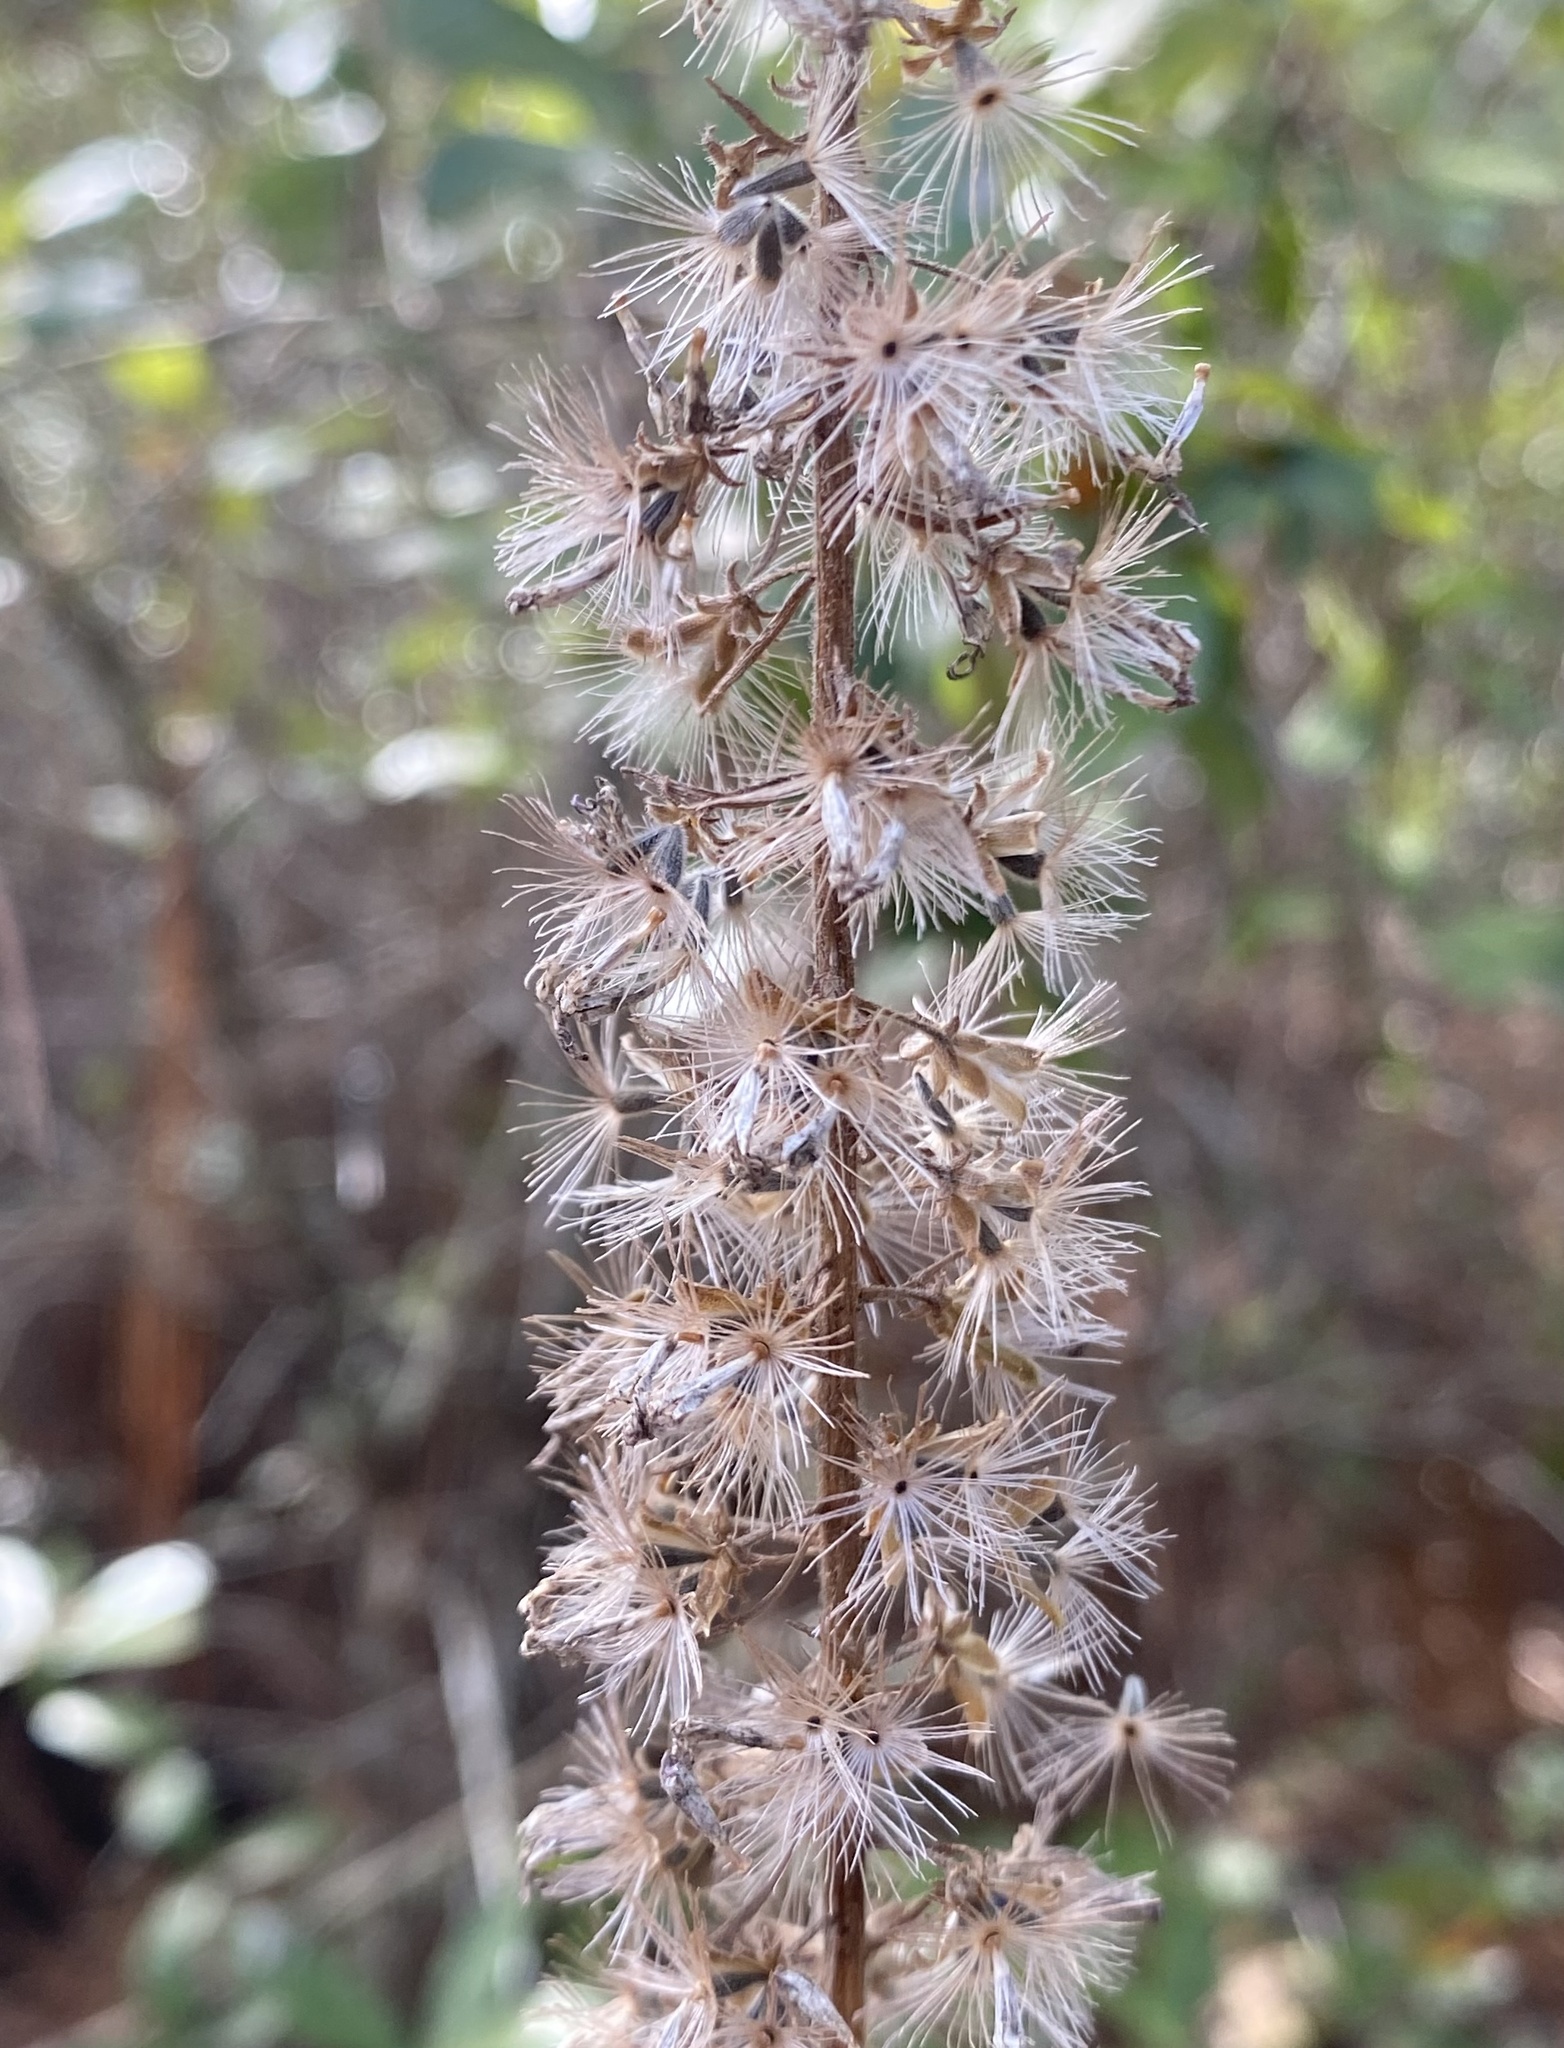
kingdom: Plantae
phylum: Tracheophyta
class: Magnoliopsida
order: Asterales
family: Asteraceae
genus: Liatris
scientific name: Liatris gracilis
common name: Slender gayfeather
